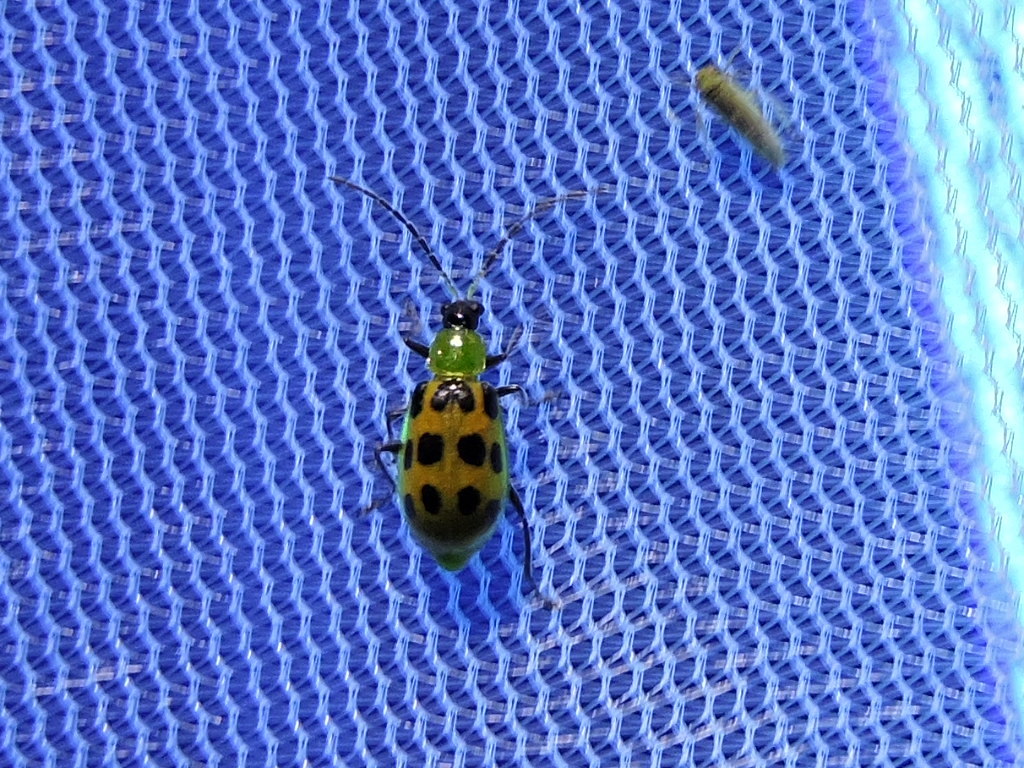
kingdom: Animalia
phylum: Arthropoda
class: Insecta
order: Coleoptera
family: Chrysomelidae
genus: Diabrotica
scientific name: Diabrotica undecimpunctata
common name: Spotted cucumber beetle
